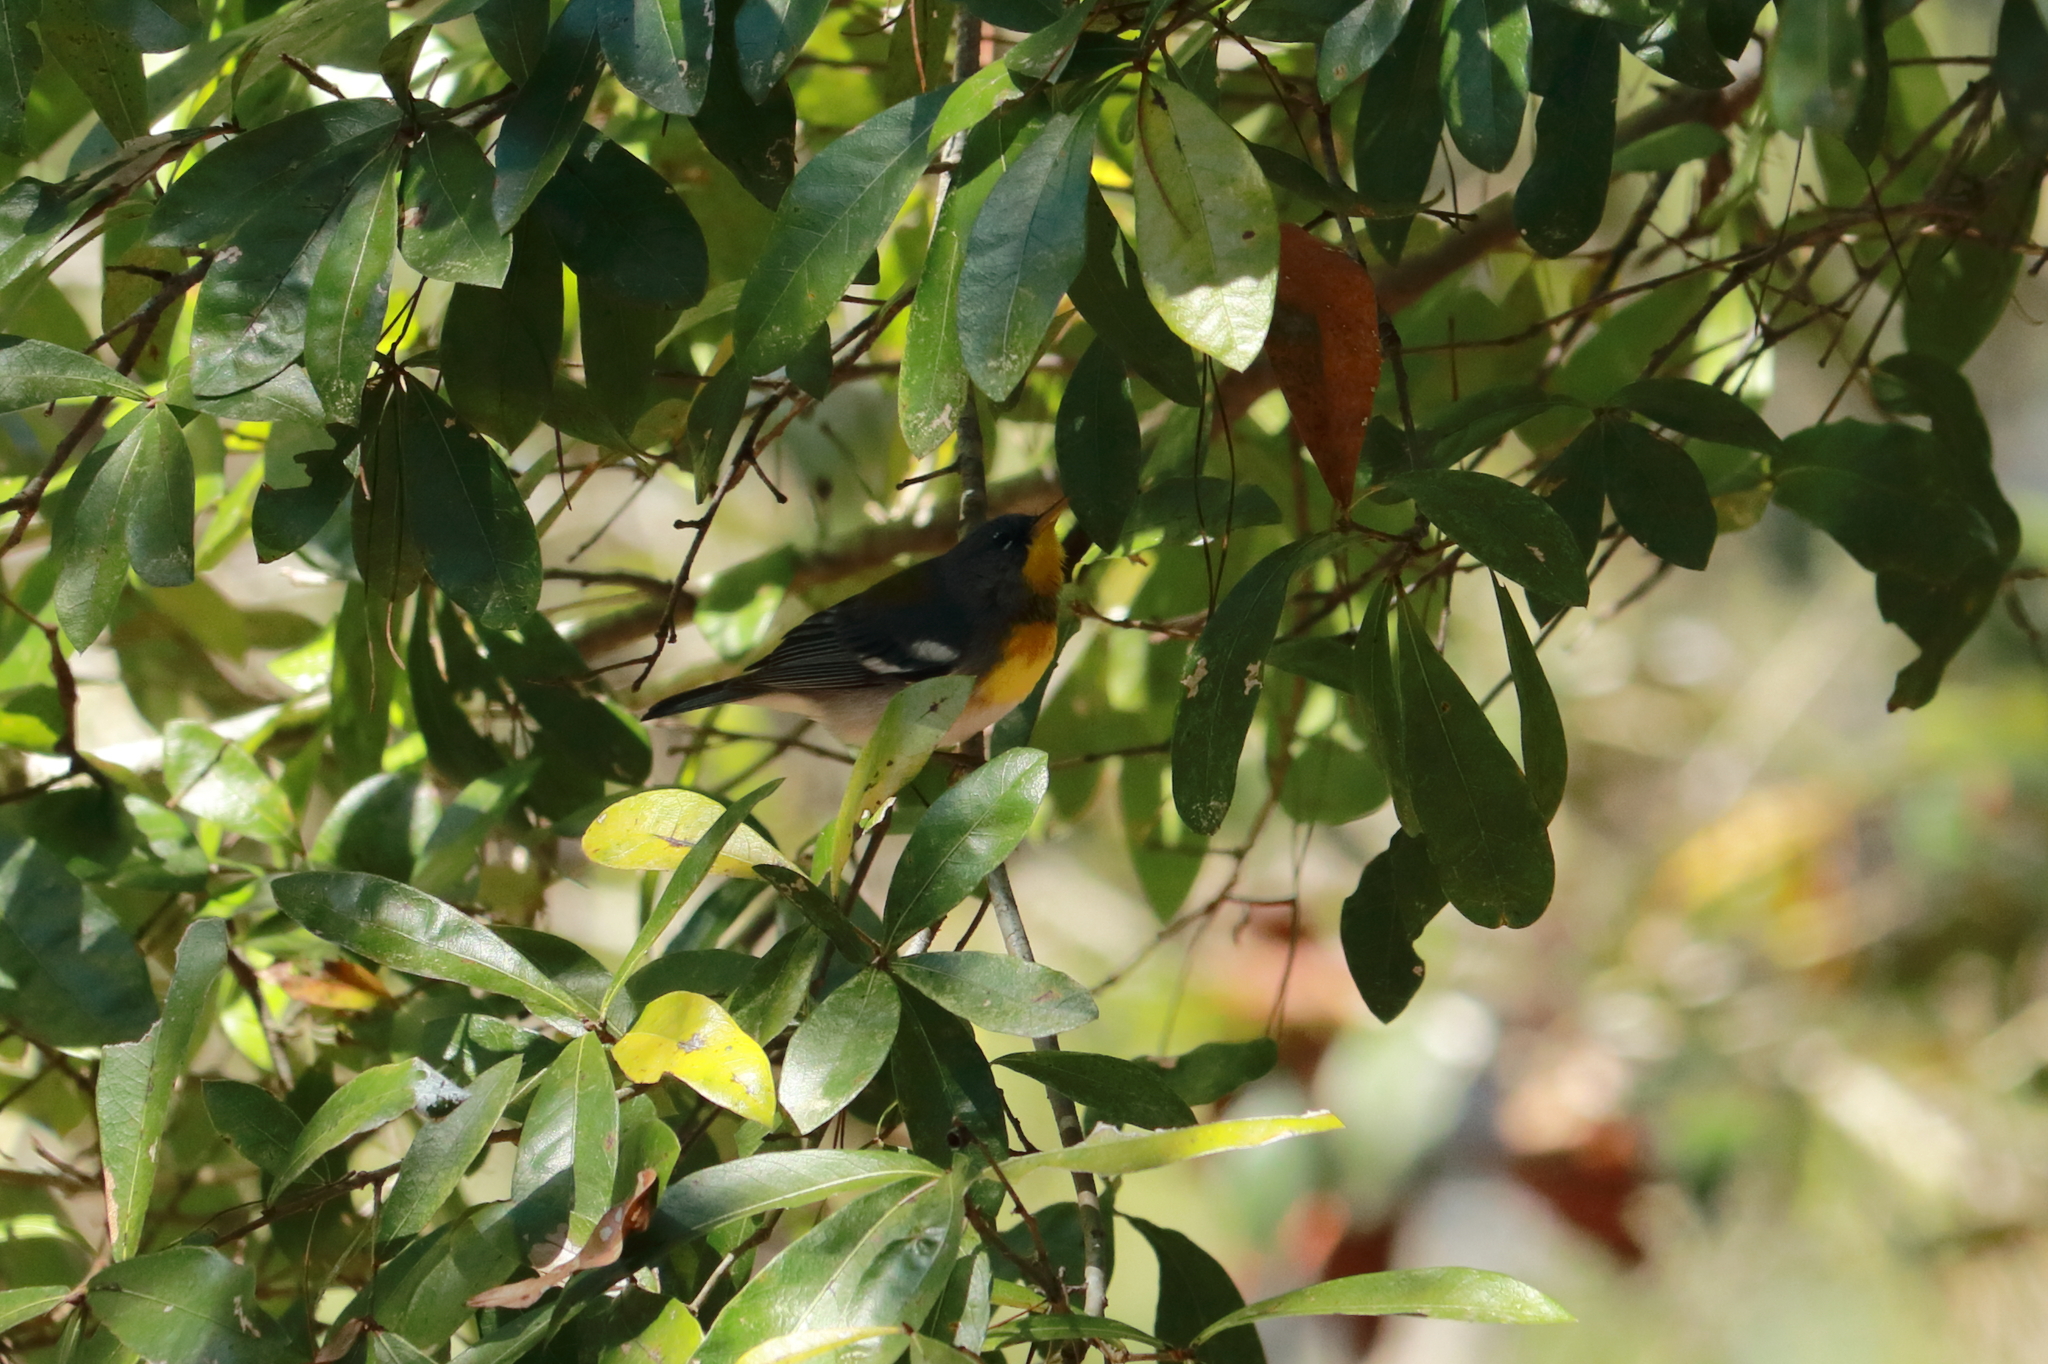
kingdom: Animalia
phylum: Chordata
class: Aves
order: Passeriformes
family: Parulidae
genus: Setophaga
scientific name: Setophaga americana
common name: Northern parula
